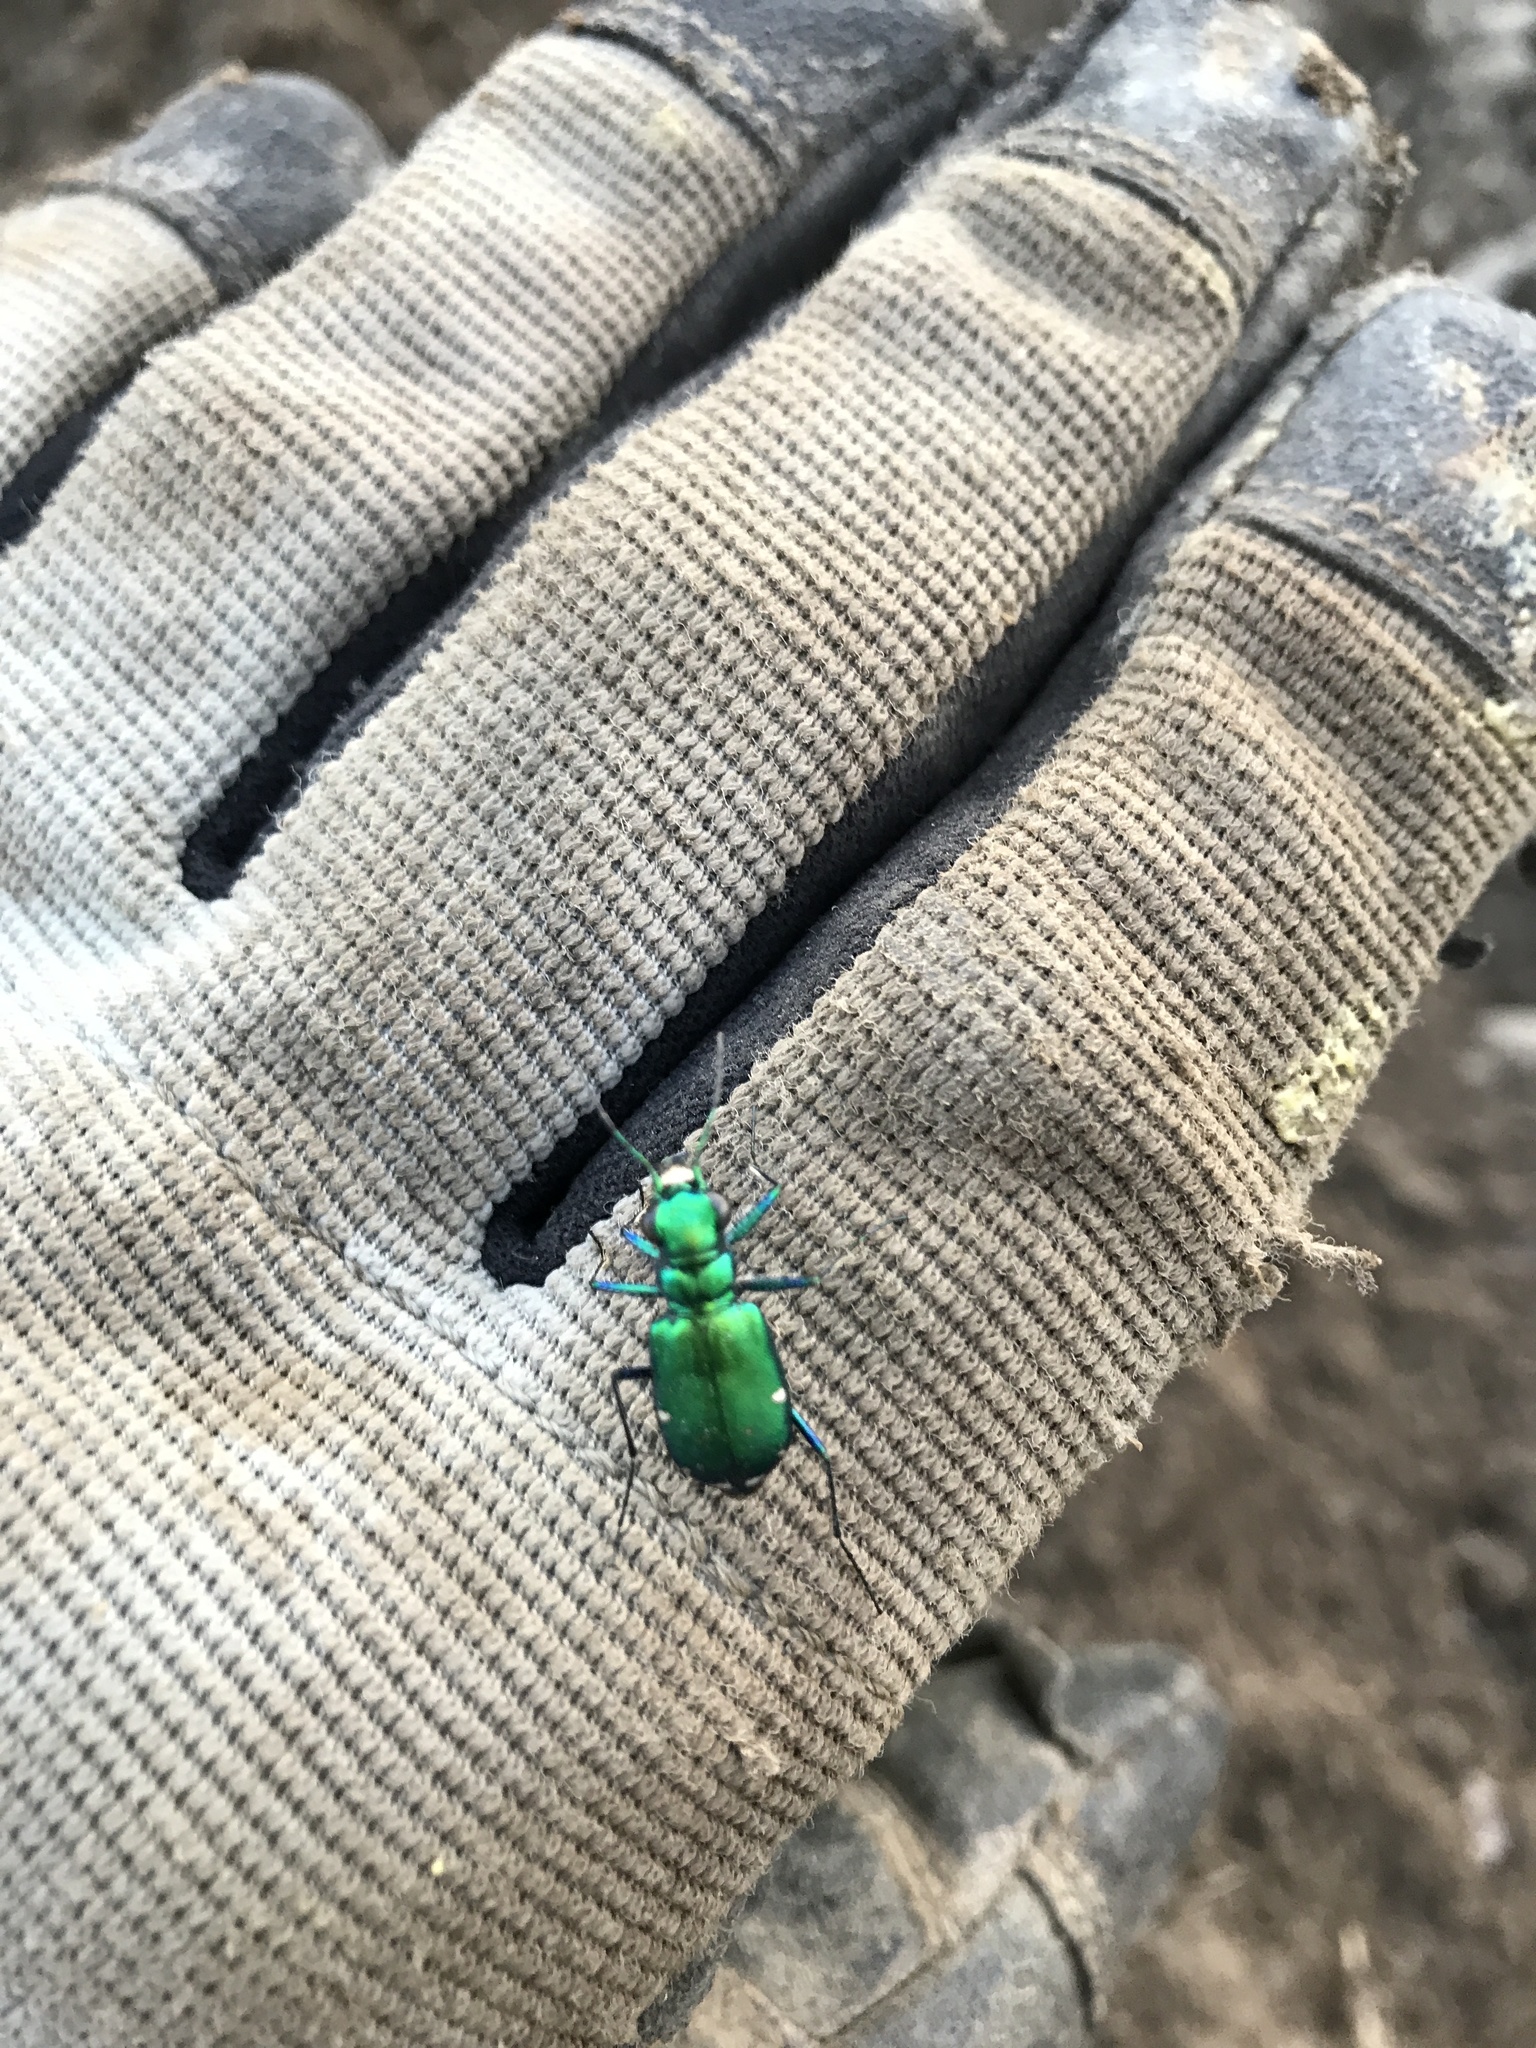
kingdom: Animalia
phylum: Arthropoda
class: Insecta
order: Coleoptera
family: Carabidae
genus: Cicindela
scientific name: Cicindela sexguttata
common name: Six-spotted tiger beetle
